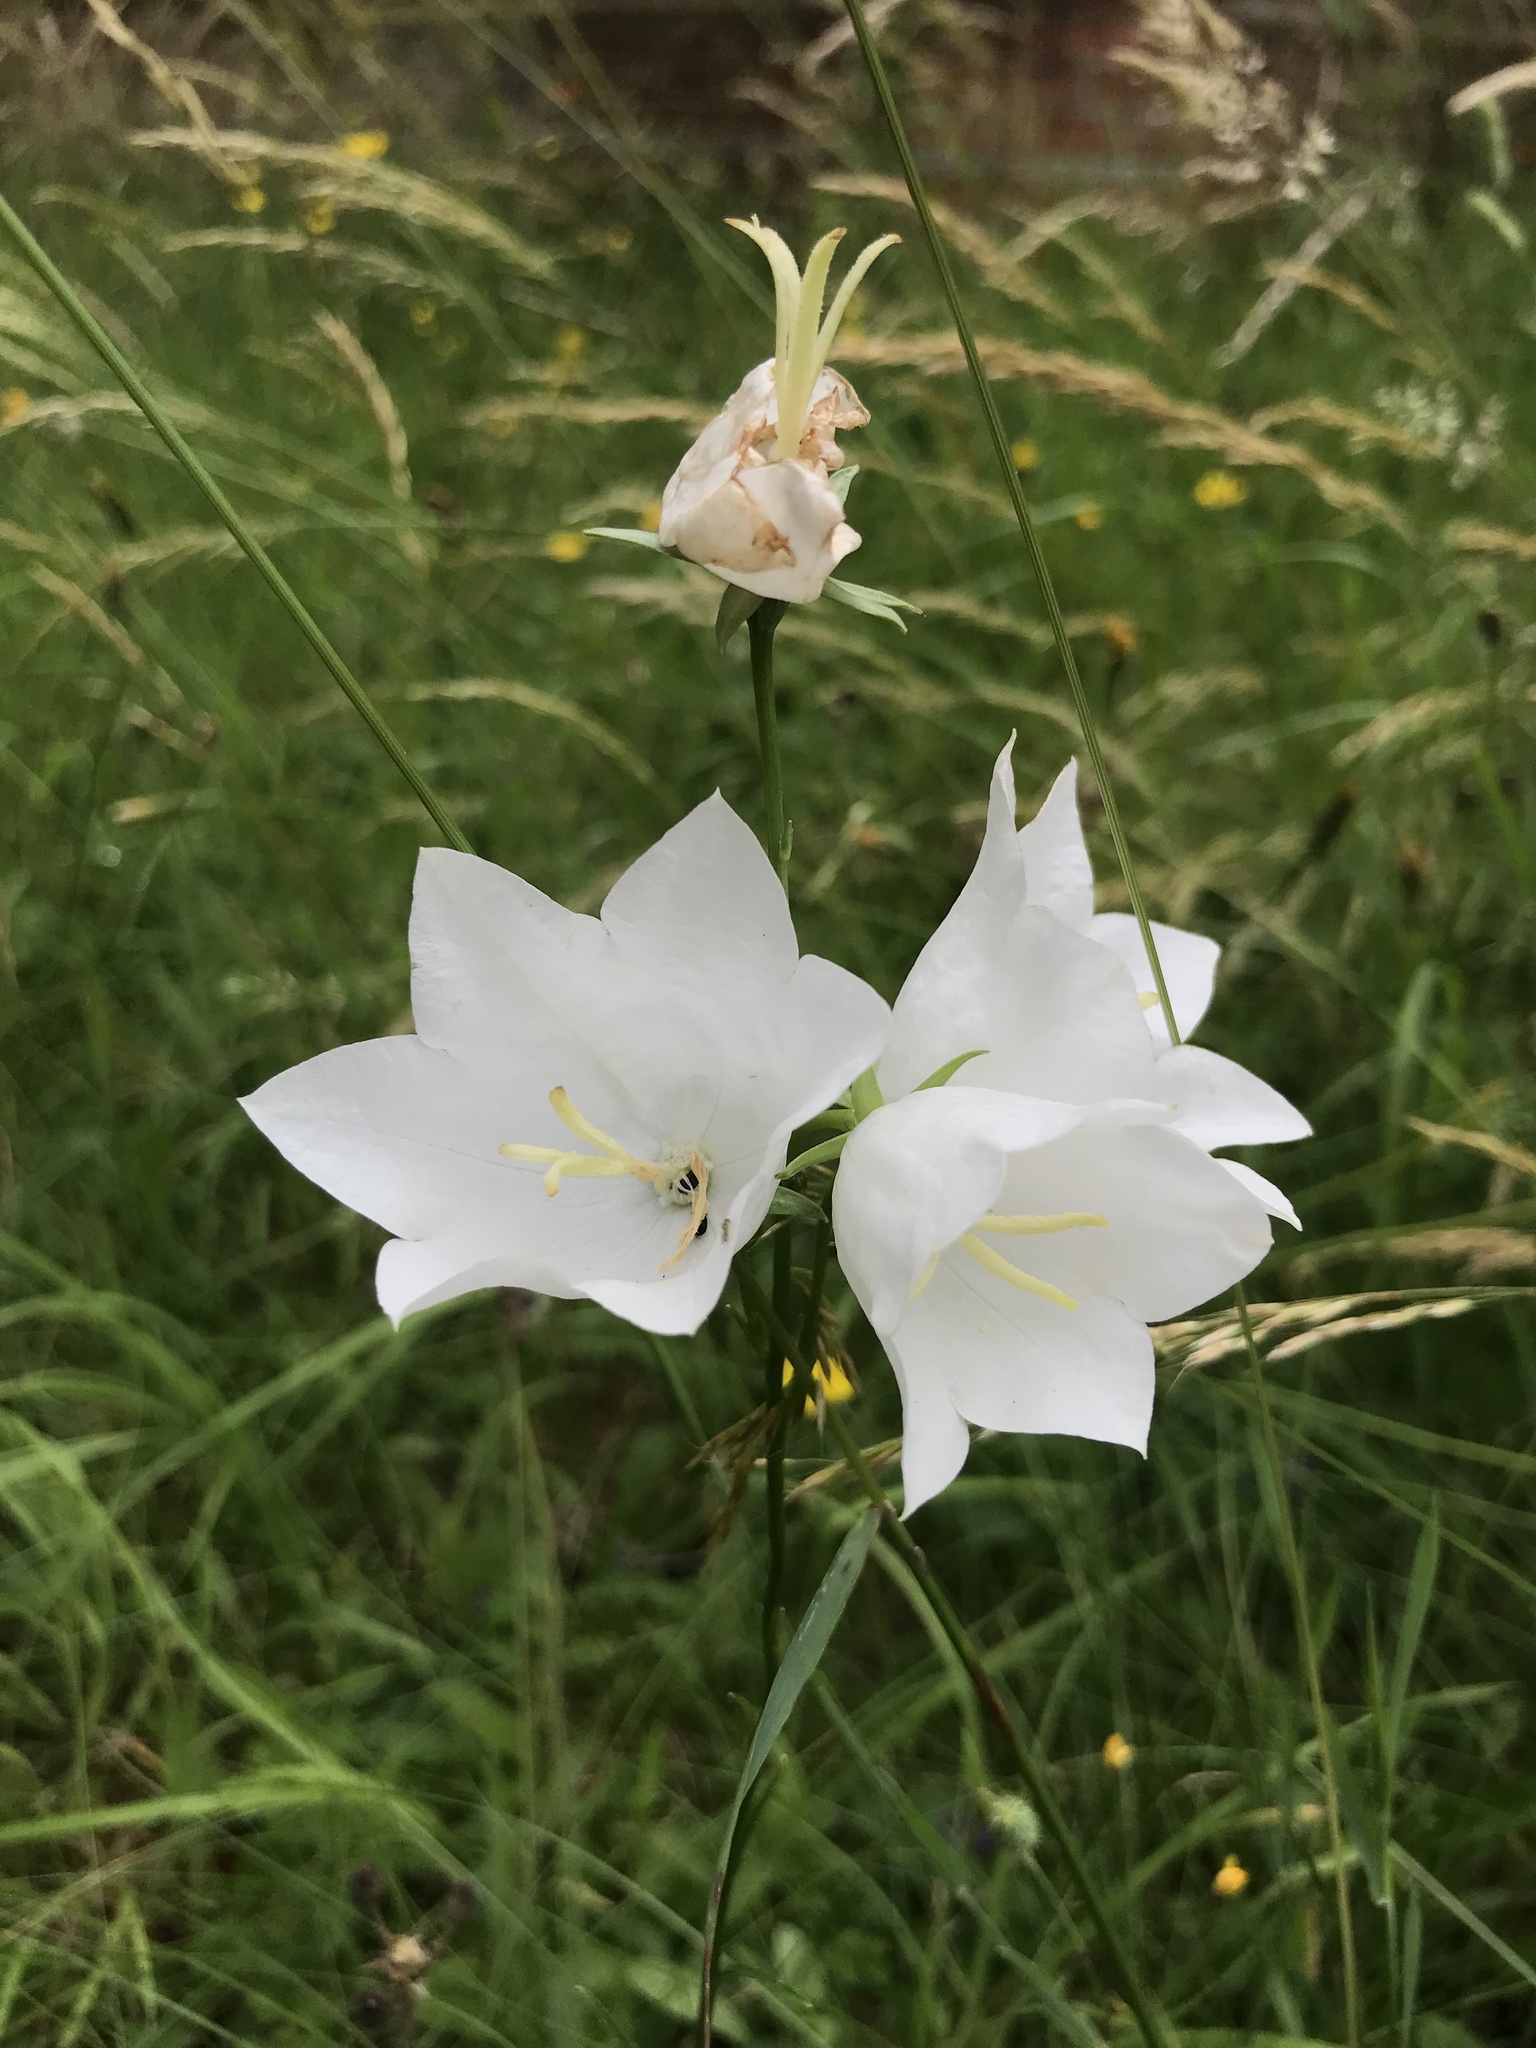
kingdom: Plantae
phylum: Tracheophyta
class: Magnoliopsida
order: Asterales
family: Campanulaceae
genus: Campanula
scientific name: Campanula persicifolia
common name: Peach-leaved bellflower
